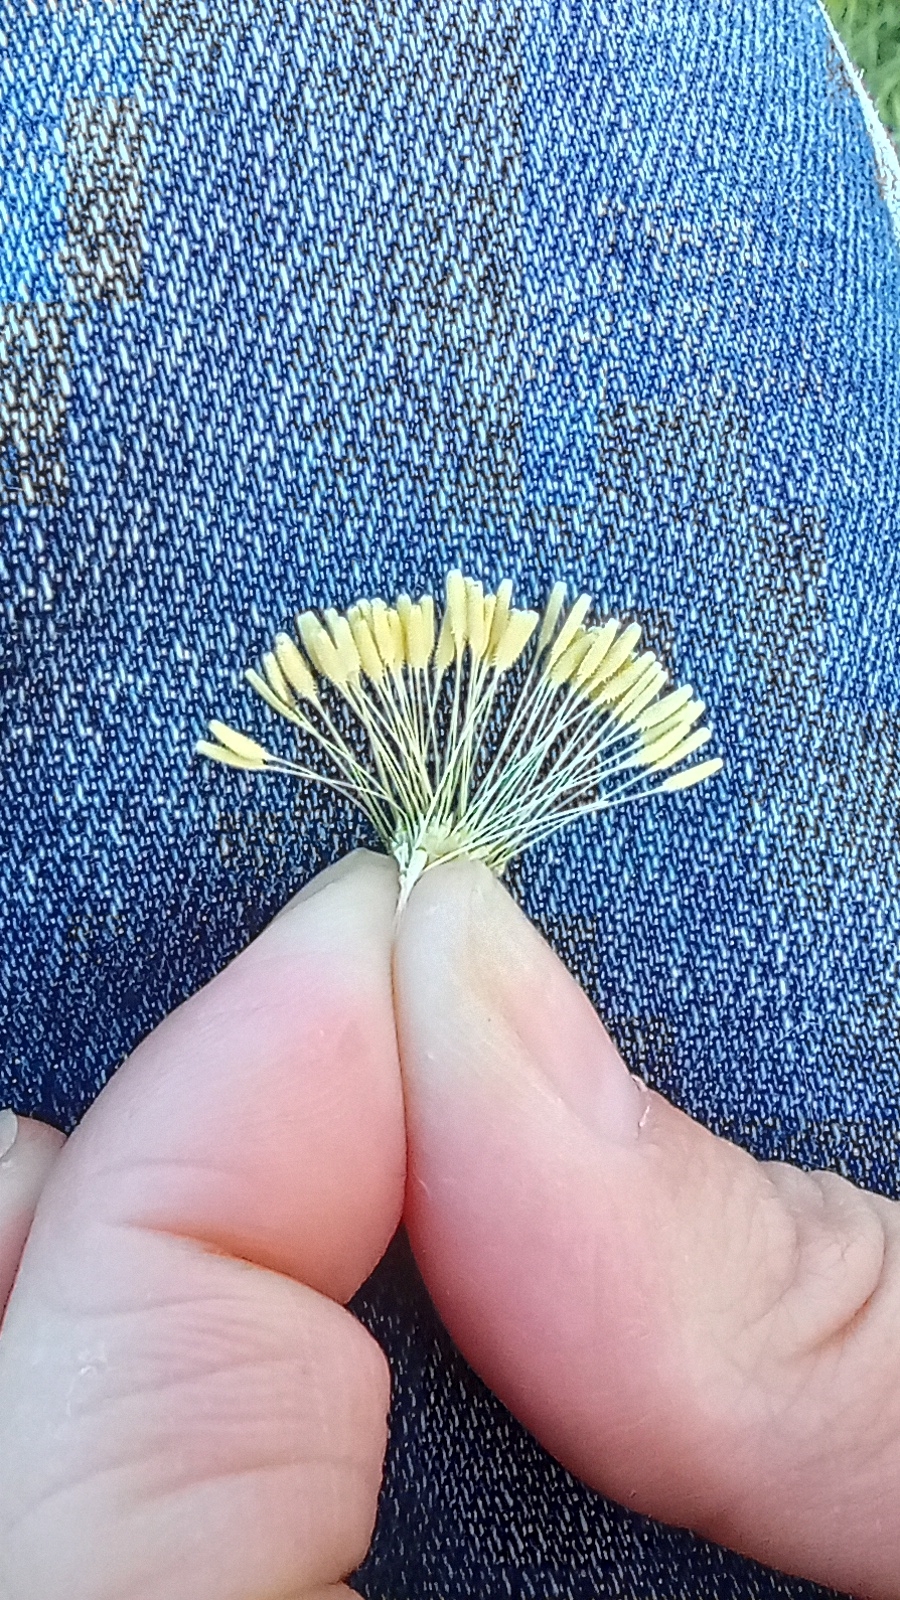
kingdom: Plantae
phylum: Tracheophyta
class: Magnoliopsida
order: Asterales
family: Asteraceae
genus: Taraxacum
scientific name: Taraxacum officinale
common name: Common dandelion
